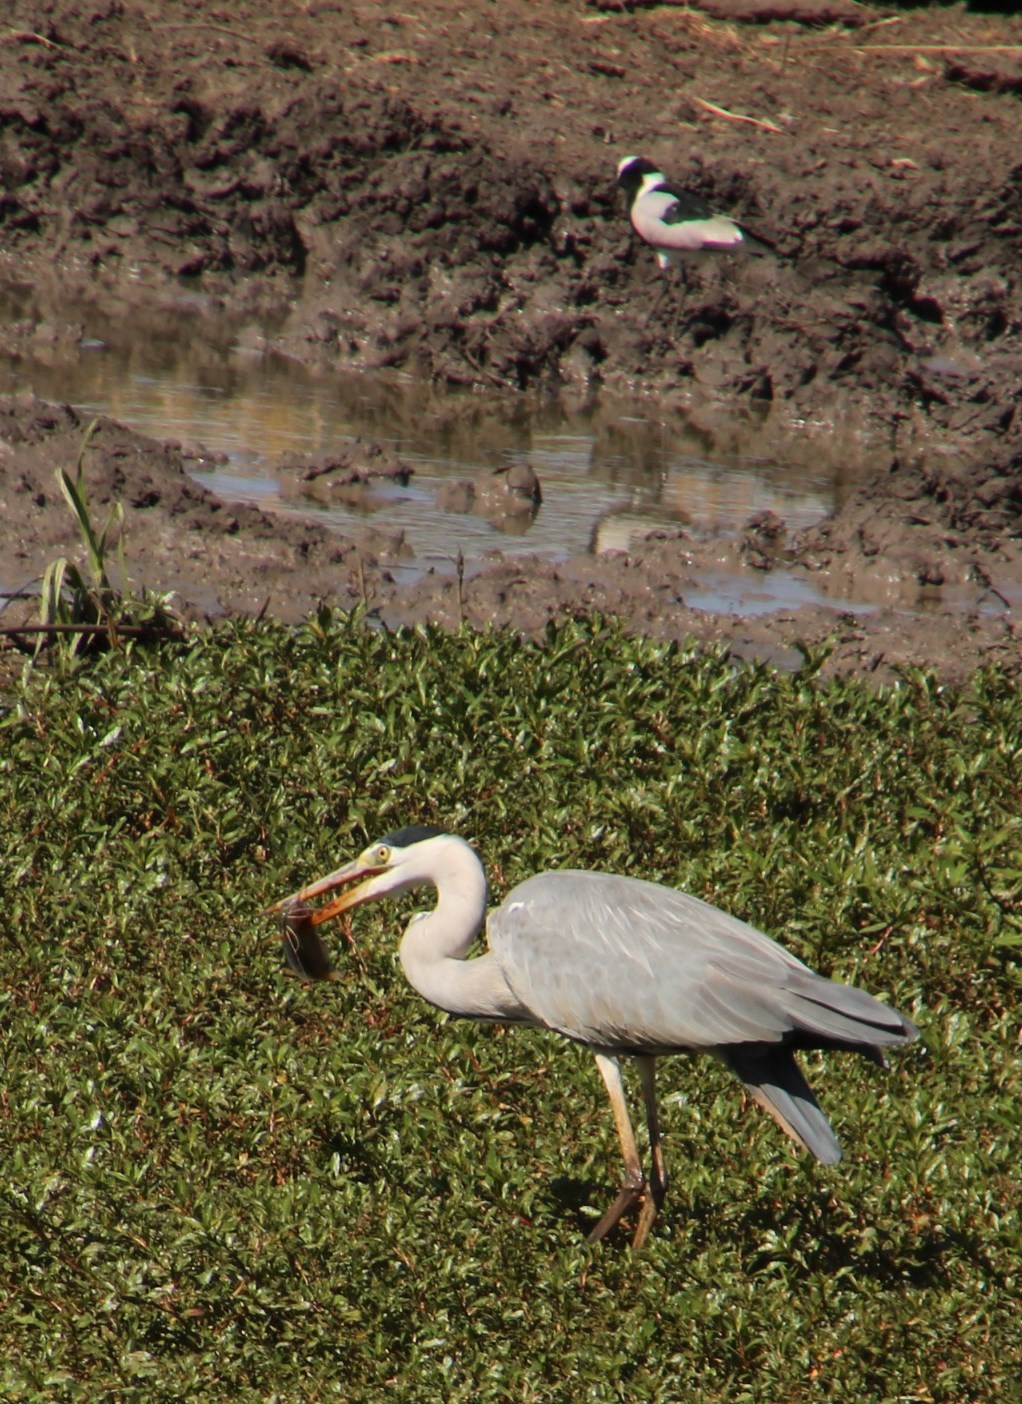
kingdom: Animalia
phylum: Chordata
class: Aves
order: Pelecaniformes
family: Ardeidae
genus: Ardea
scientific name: Ardea cinerea
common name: Grey heron
